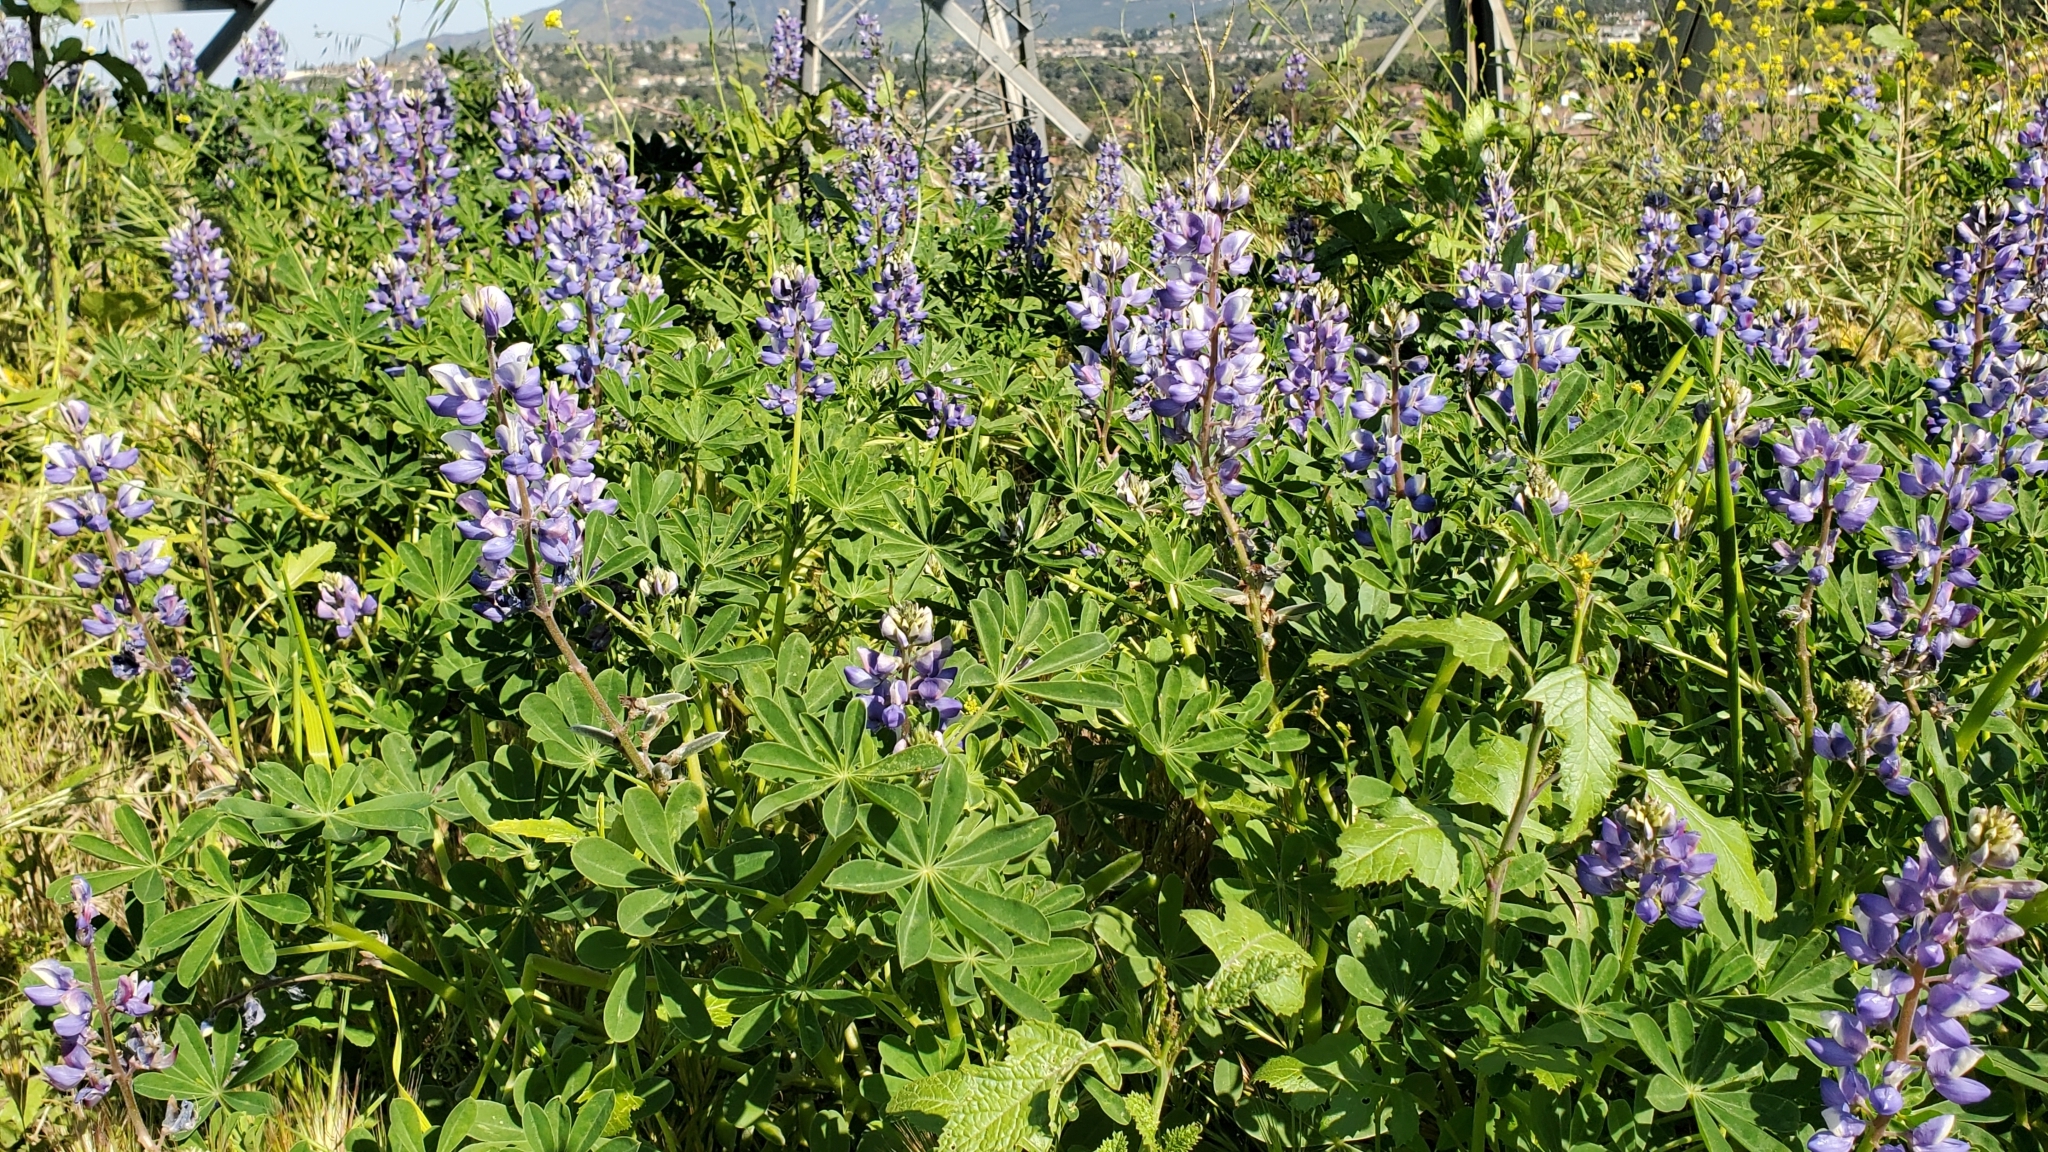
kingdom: Plantae
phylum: Tracheophyta
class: Magnoliopsida
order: Fabales
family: Fabaceae
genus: Lupinus
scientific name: Lupinus succulentus
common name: Arroyo lupine
